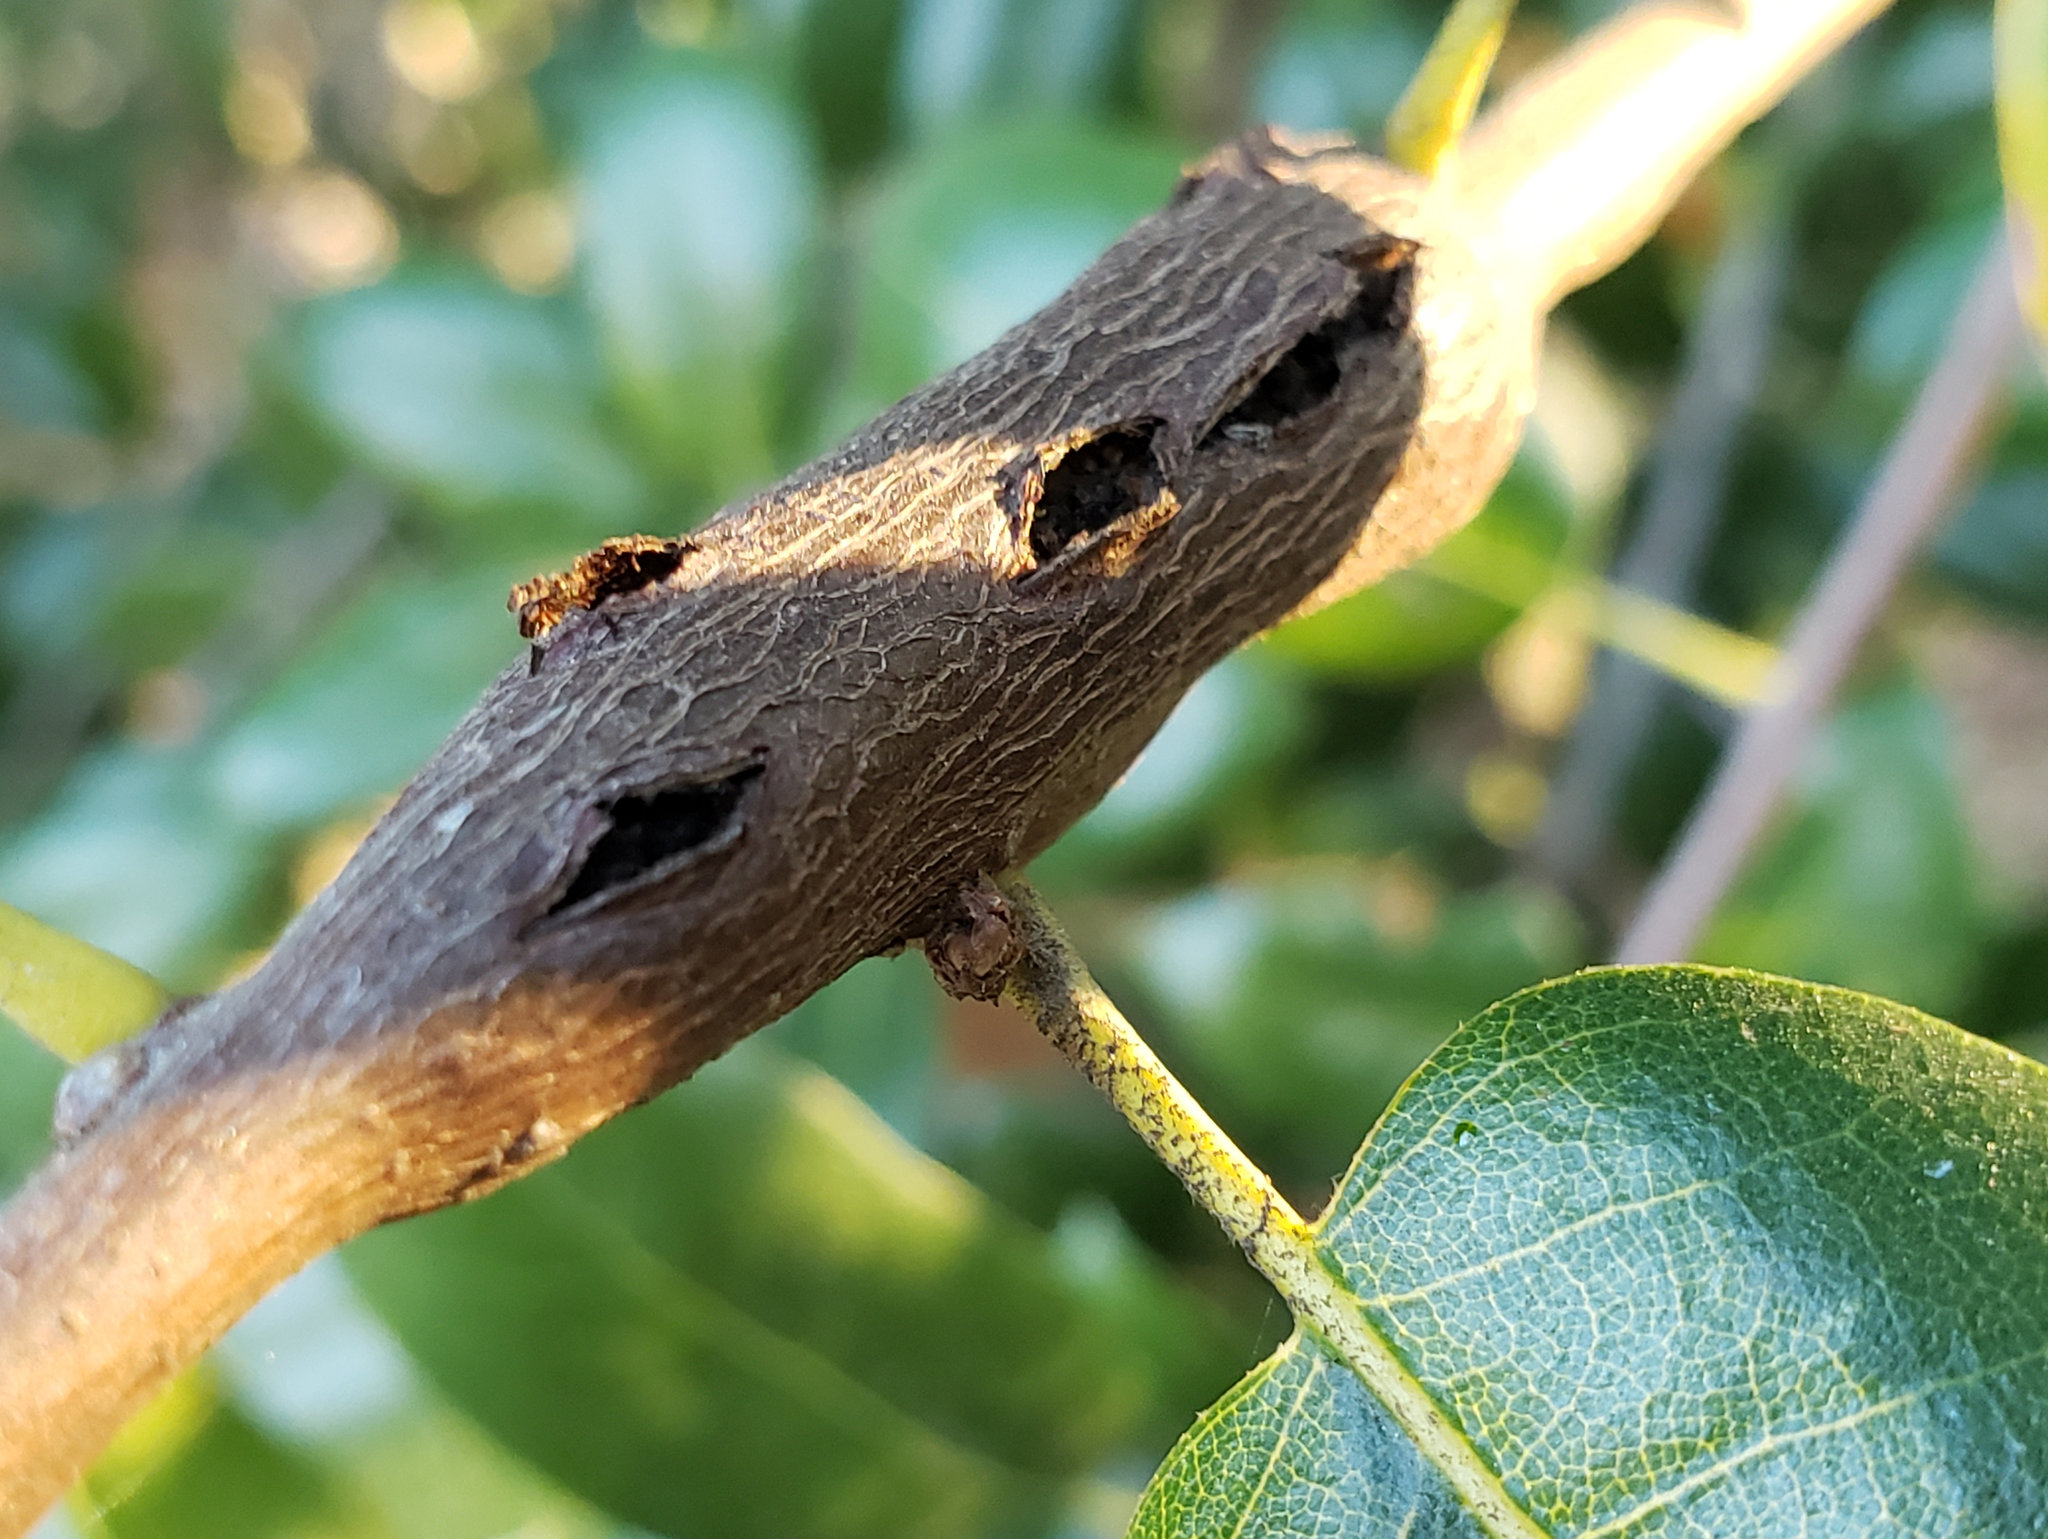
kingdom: Animalia
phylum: Arthropoda
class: Insecta
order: Hymenoptera
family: Cynipidae
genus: Callirhytis
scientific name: Callirhytis
